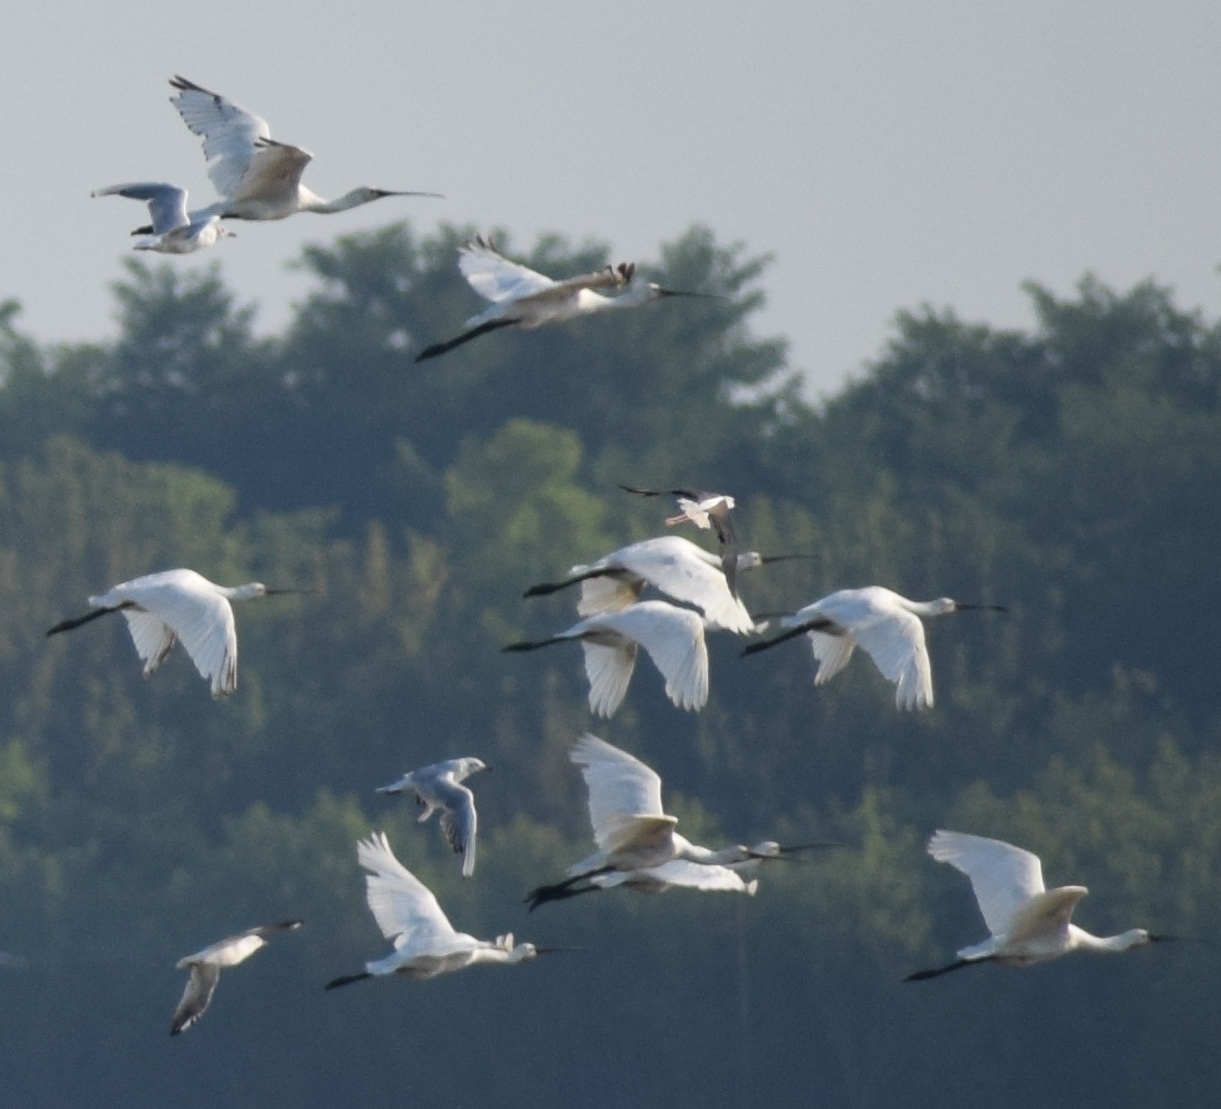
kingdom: Animalia
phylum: Chordata
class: Aves
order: Pelecaniformes
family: Threskiornithidae
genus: Platalea
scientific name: Platalea leucorodia
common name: Eurasian spoonbill
